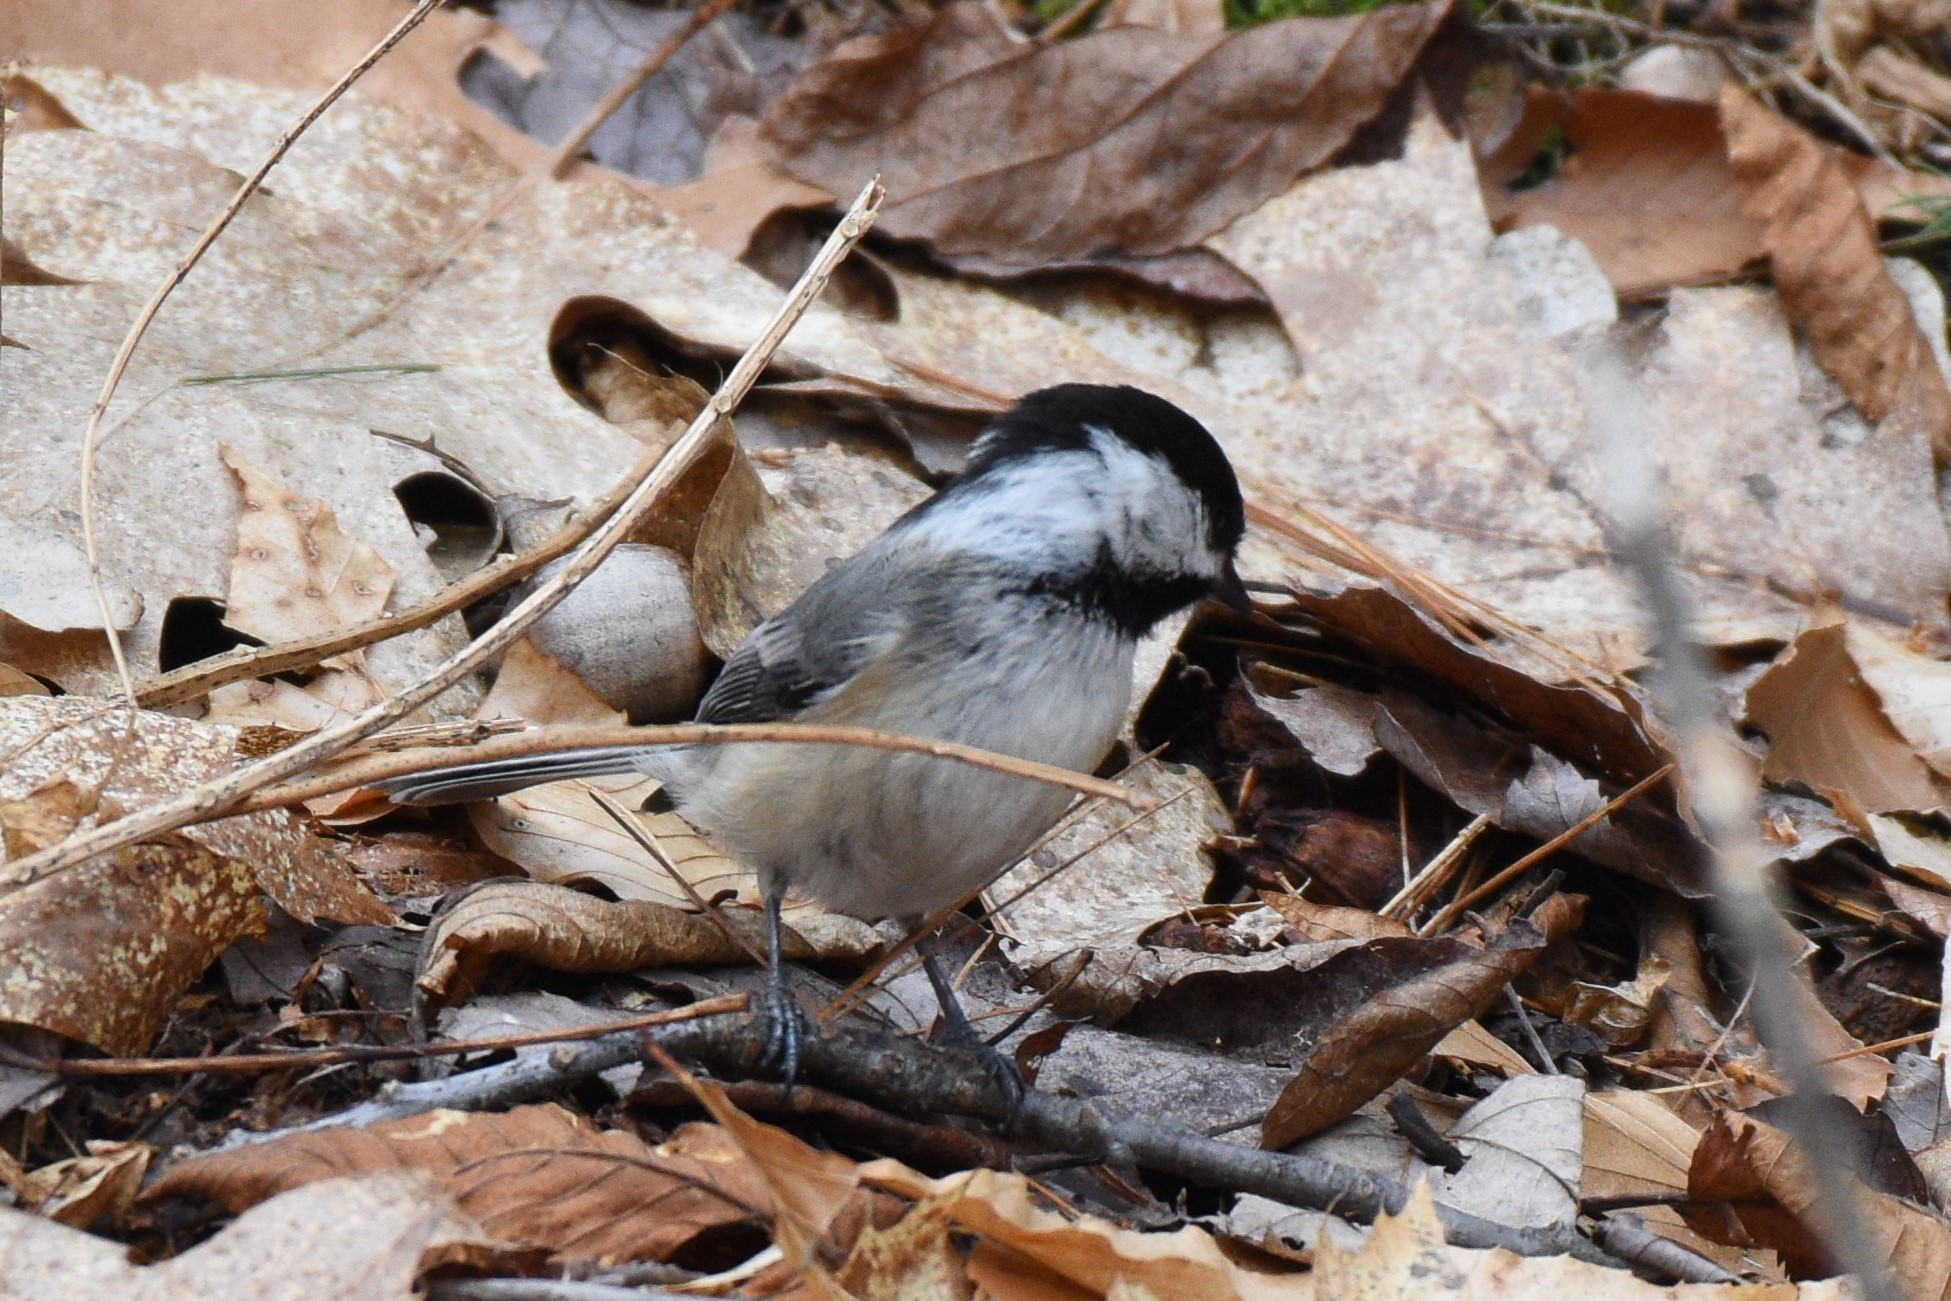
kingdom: Animalia
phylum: Chordata
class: Aves
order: Passeriformes
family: Paridae
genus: Poecile
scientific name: Poecile atricapillus
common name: Black-capped chickadee
